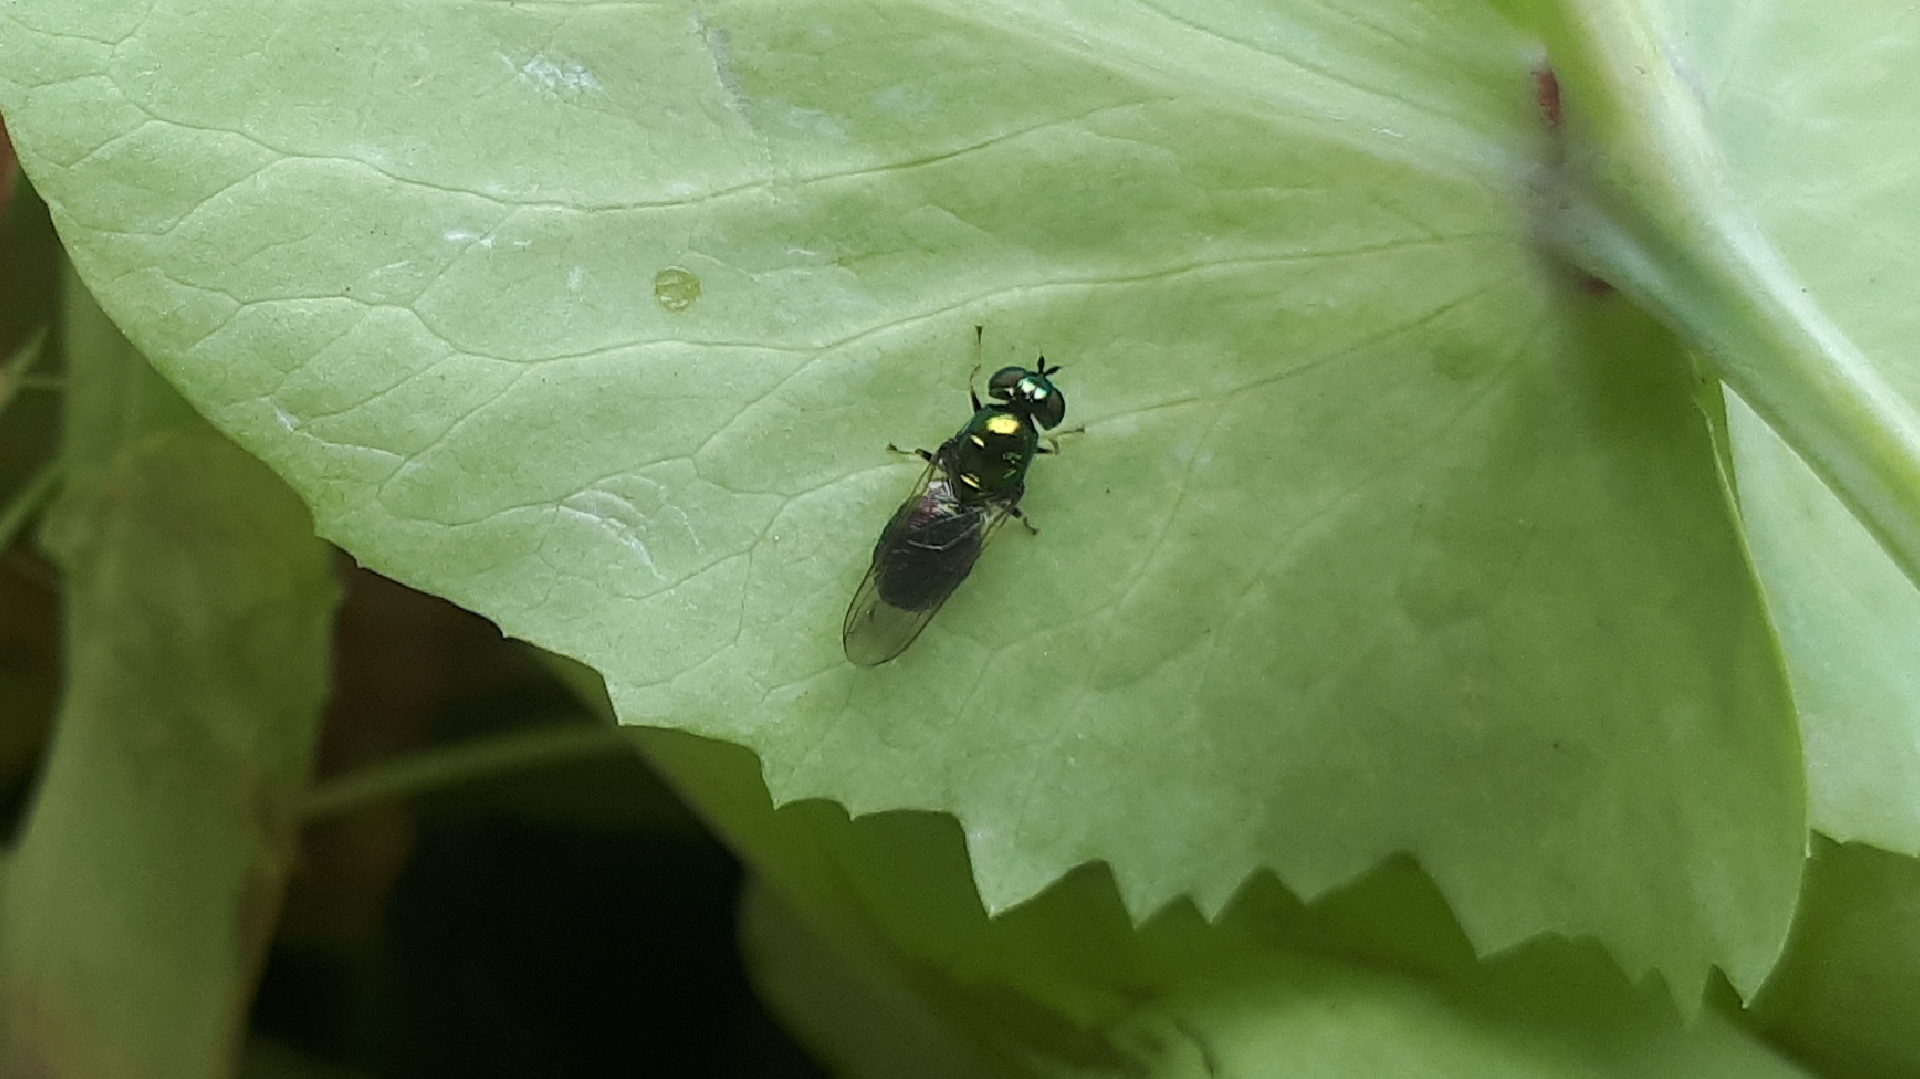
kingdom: Animalia
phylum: Arthropoda
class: Insecta
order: Diptera
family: Stratiomyidae
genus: Microchrysa
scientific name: Microchrysa polita
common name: Black-horned gem
